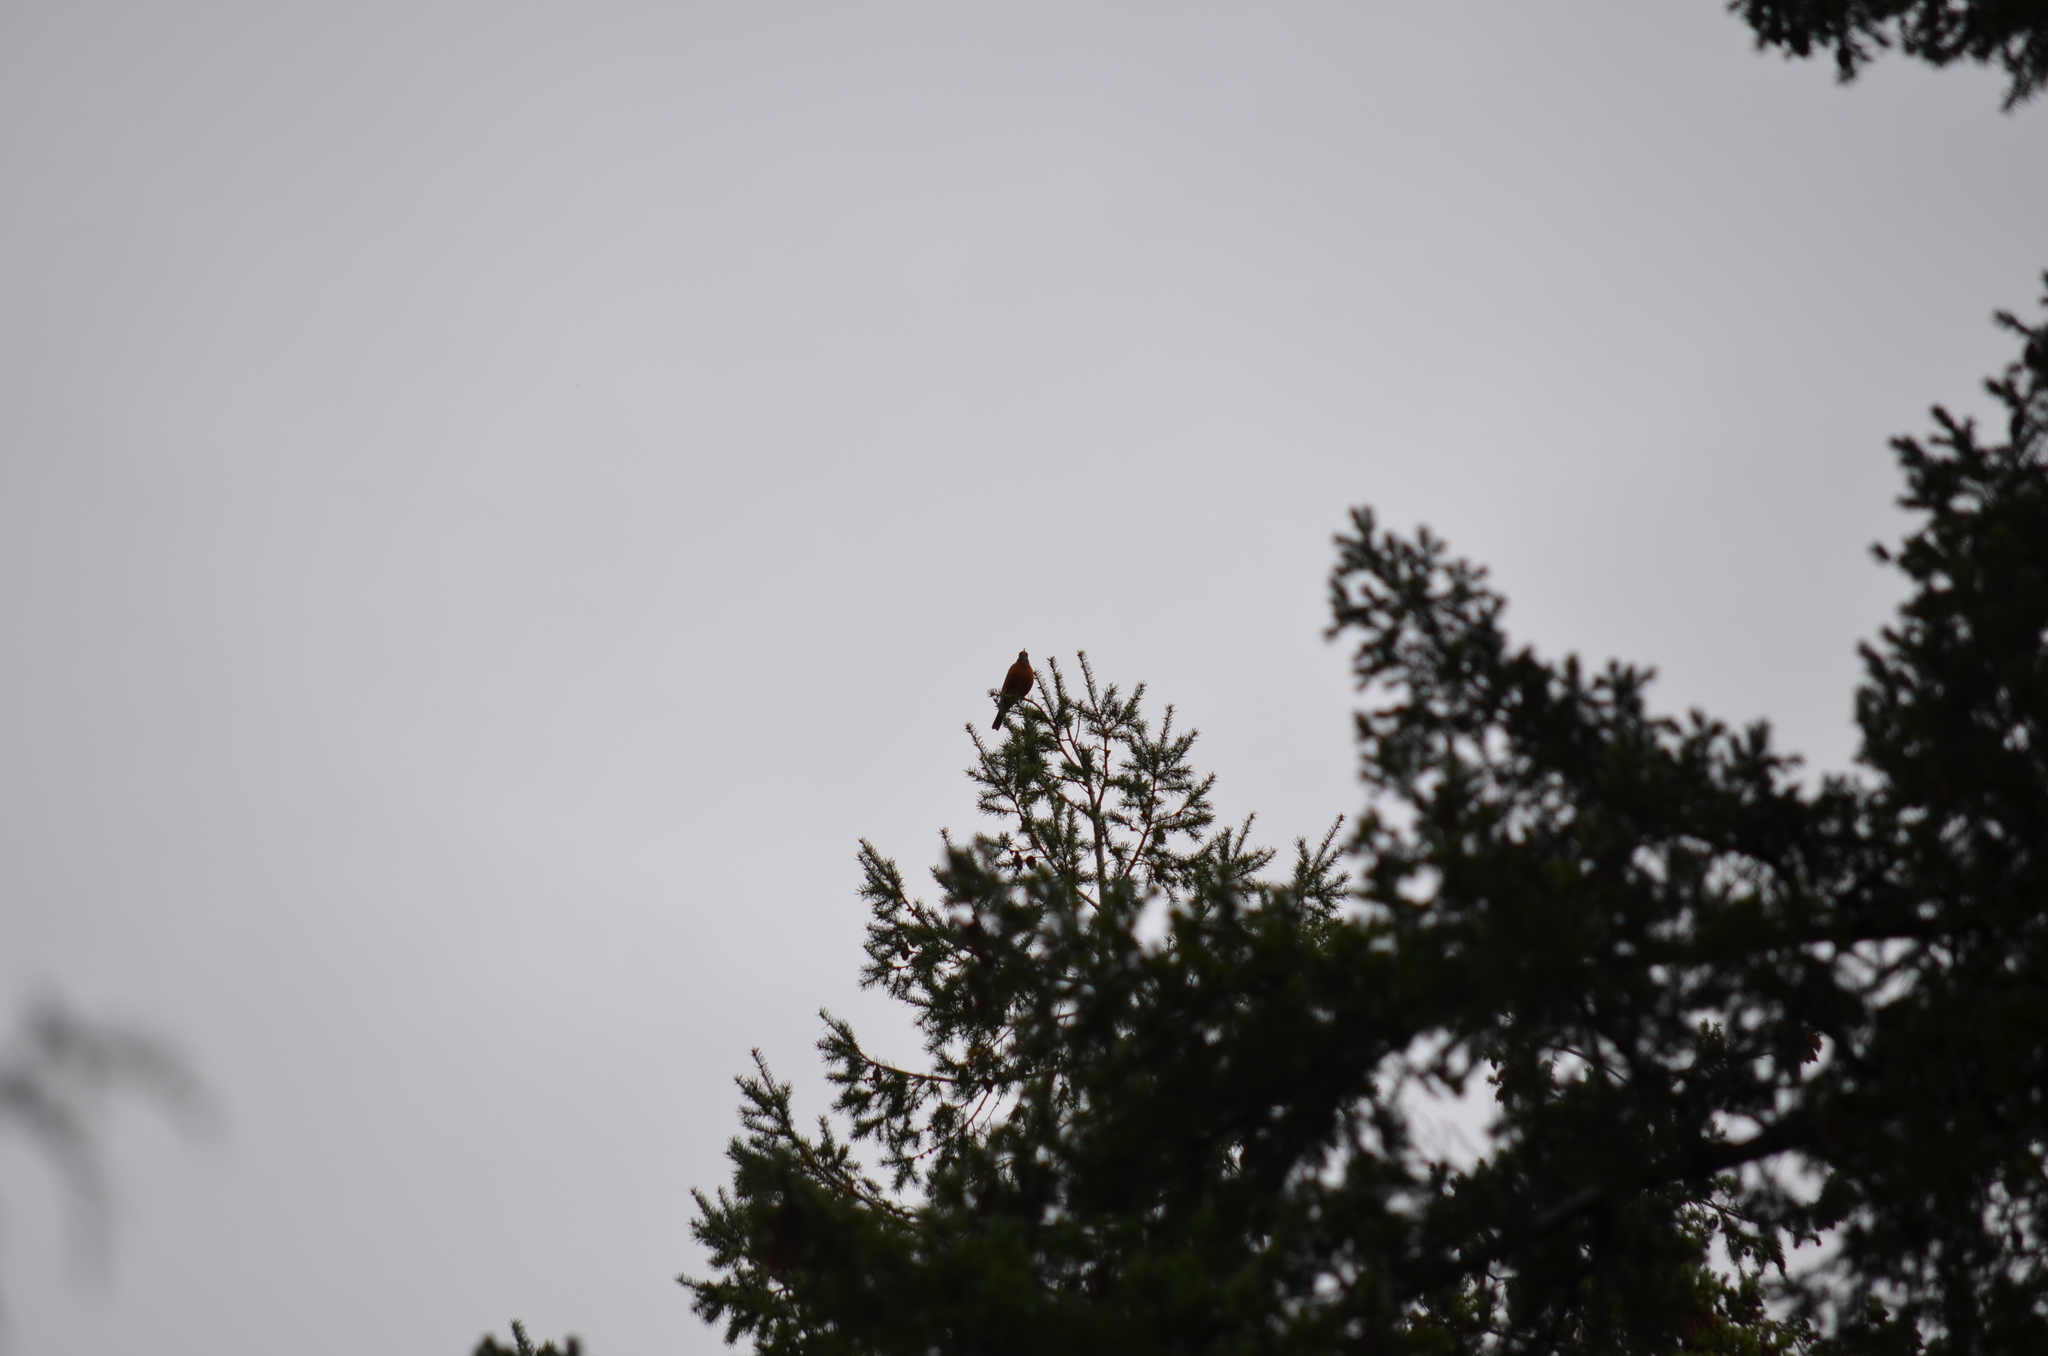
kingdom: Animalia
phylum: Chordata
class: Aves
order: Passeriformes
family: Turdidae
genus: Turdus
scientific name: Turdus migratorius
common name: American robin
